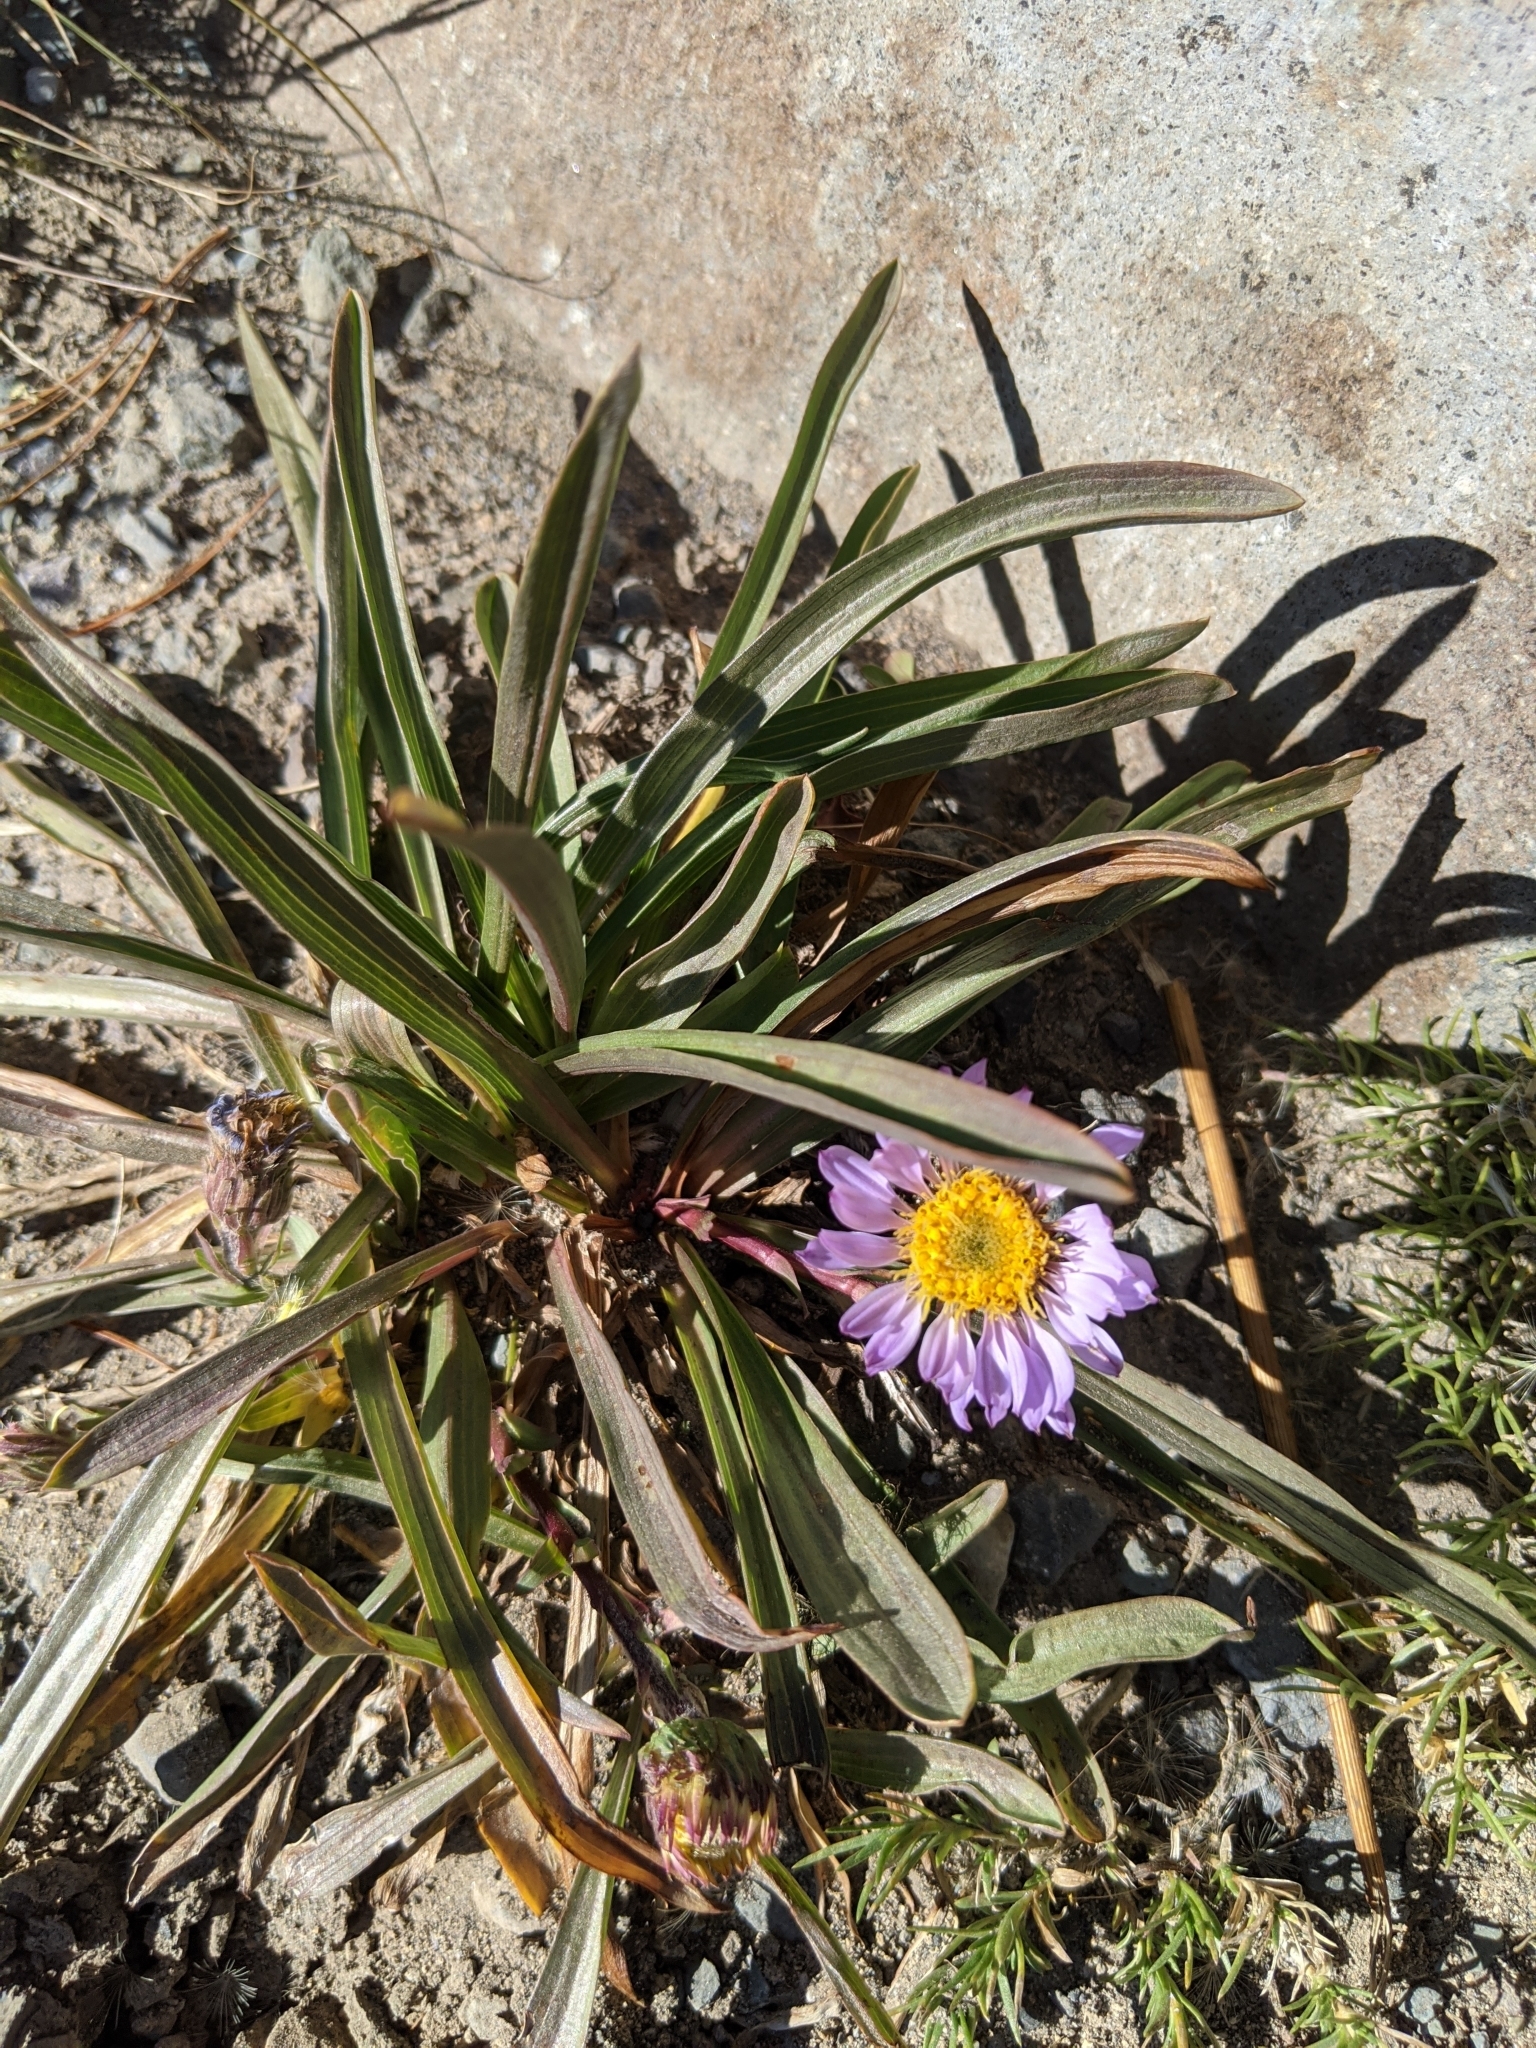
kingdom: Plantae
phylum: Tracheophyta
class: Magnoliopsida
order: Asterales
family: Asteraceae
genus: Oreostemma
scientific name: Oreostemma alpigenum
